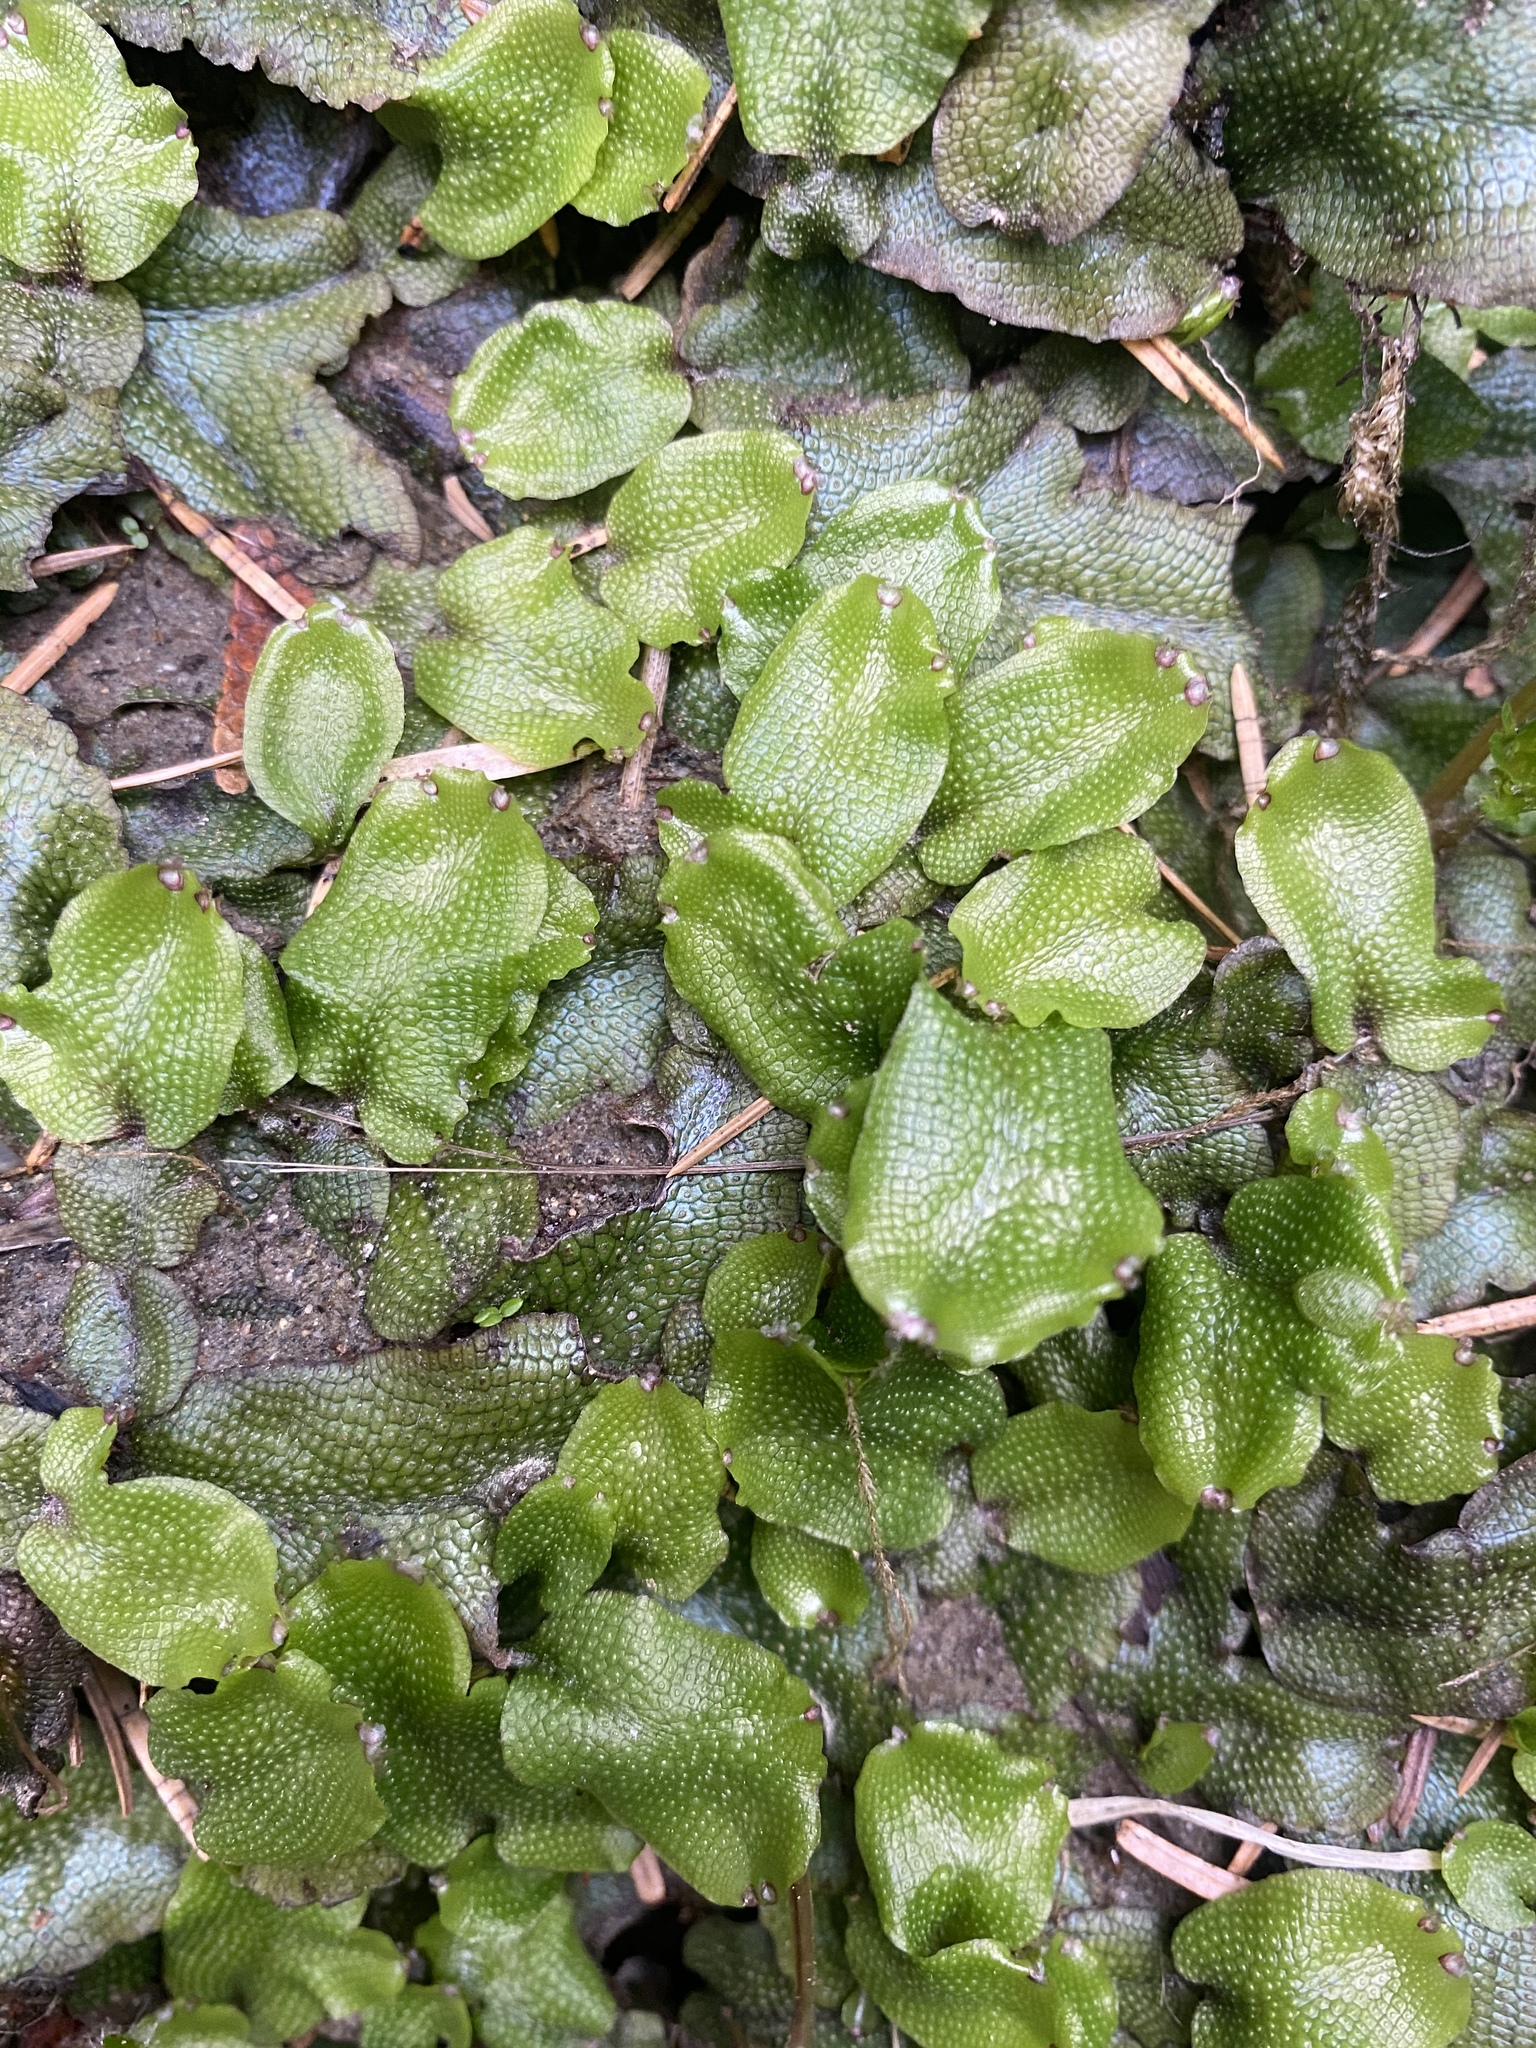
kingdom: Plantae
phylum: Marchantiophyta
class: Marchantiopsida
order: Marchantiales
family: Conocephalaceae
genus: Conocephalum
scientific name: Conocephalum salebrosum
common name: Cat-tongue liverwort
